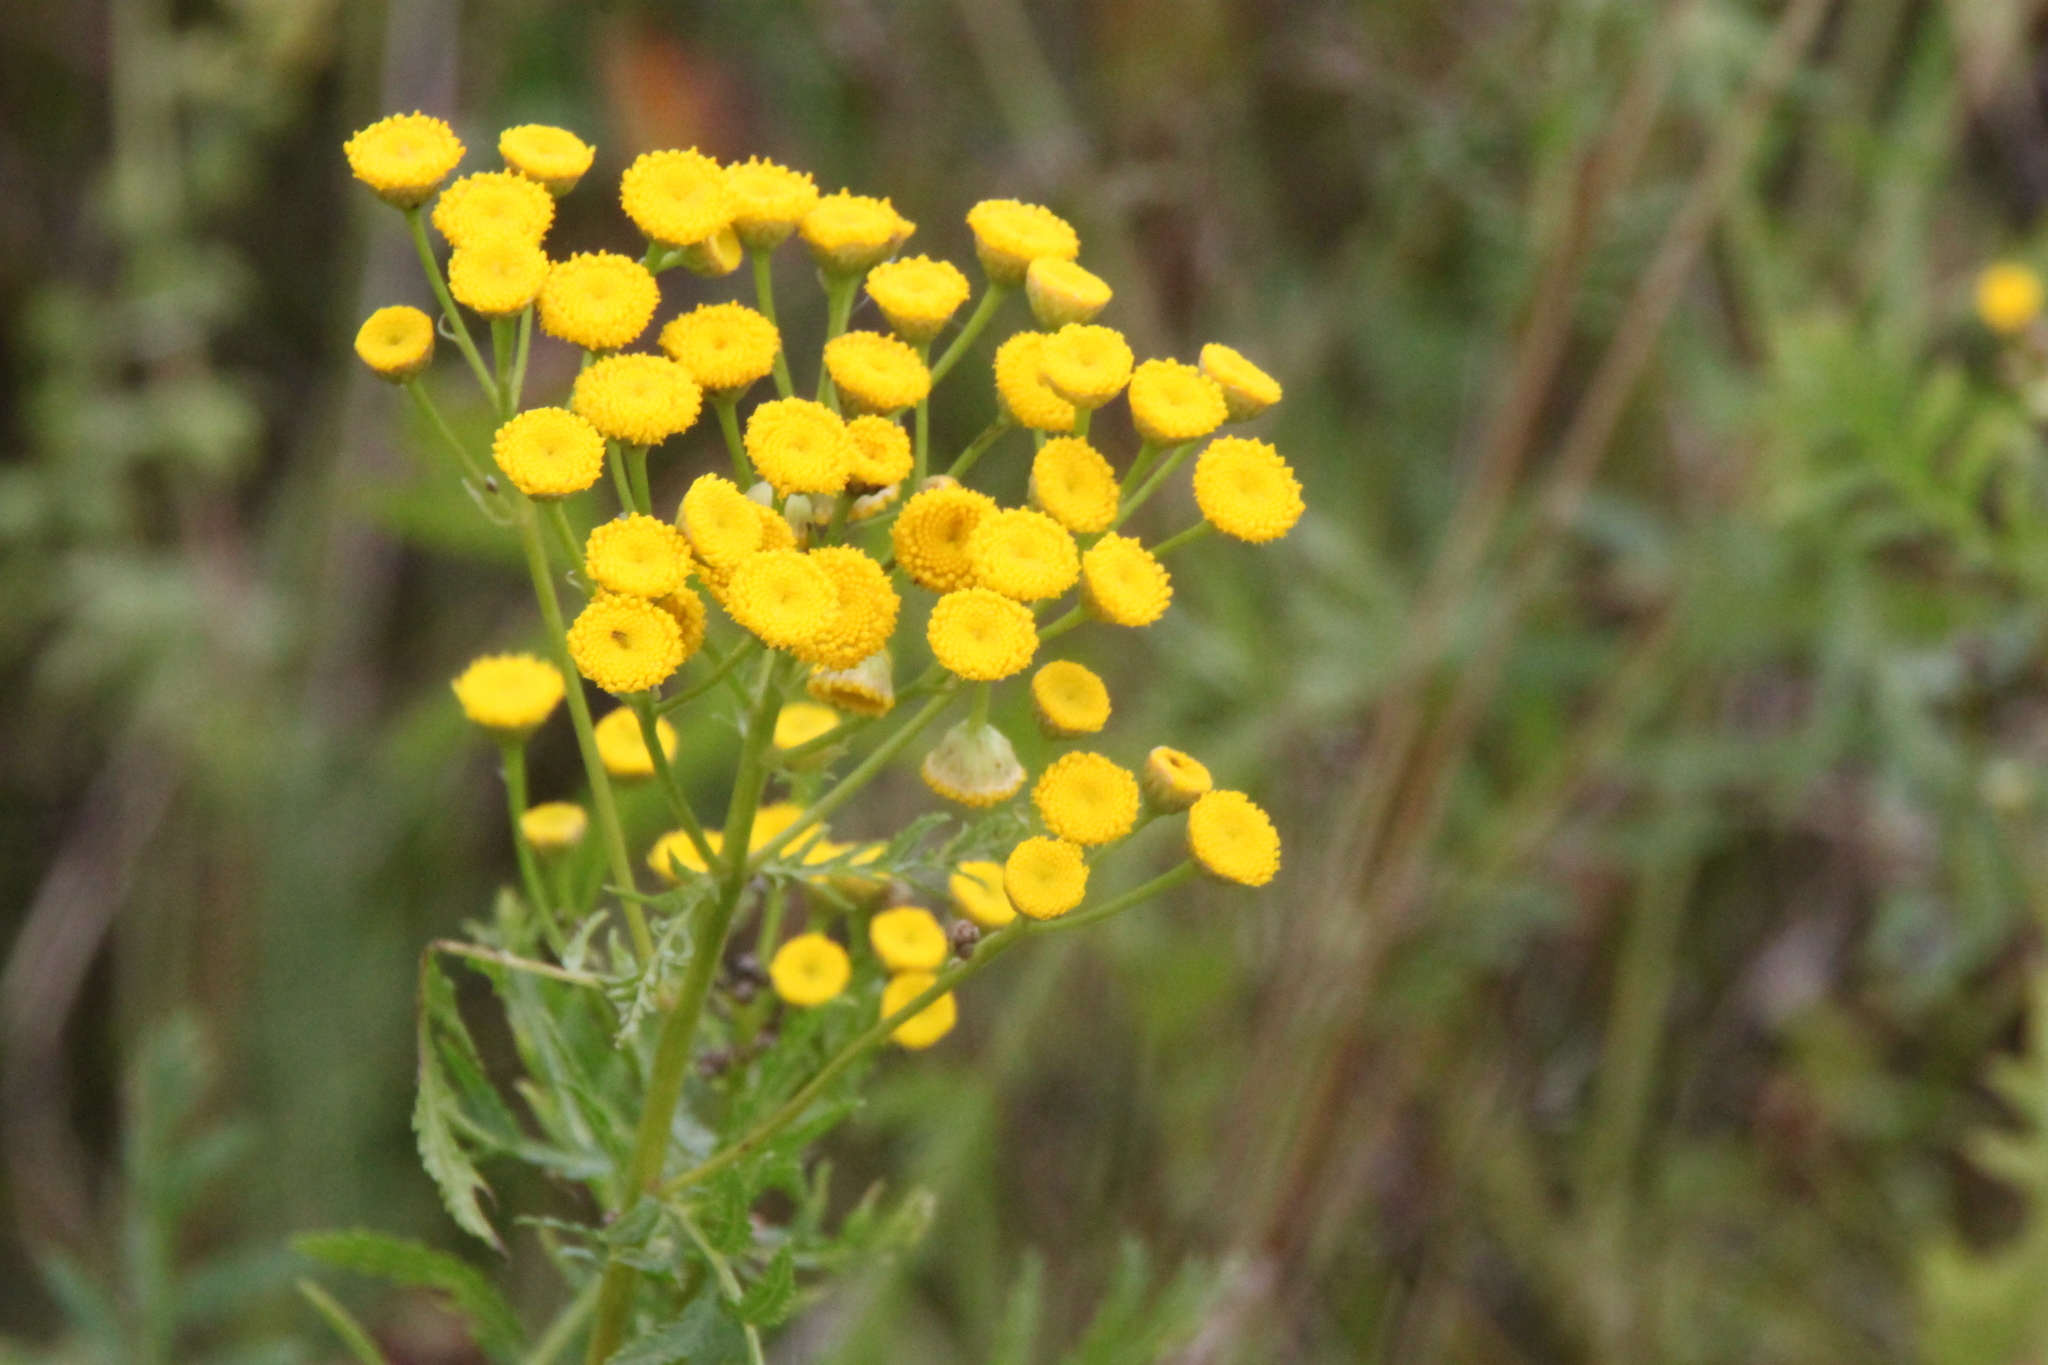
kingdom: Plantae
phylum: Tracheophyta
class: Magnoliopsida
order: Asterales
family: Asteraceae
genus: Tanacetum
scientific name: Tanacetum vulgare
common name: Common tansy
